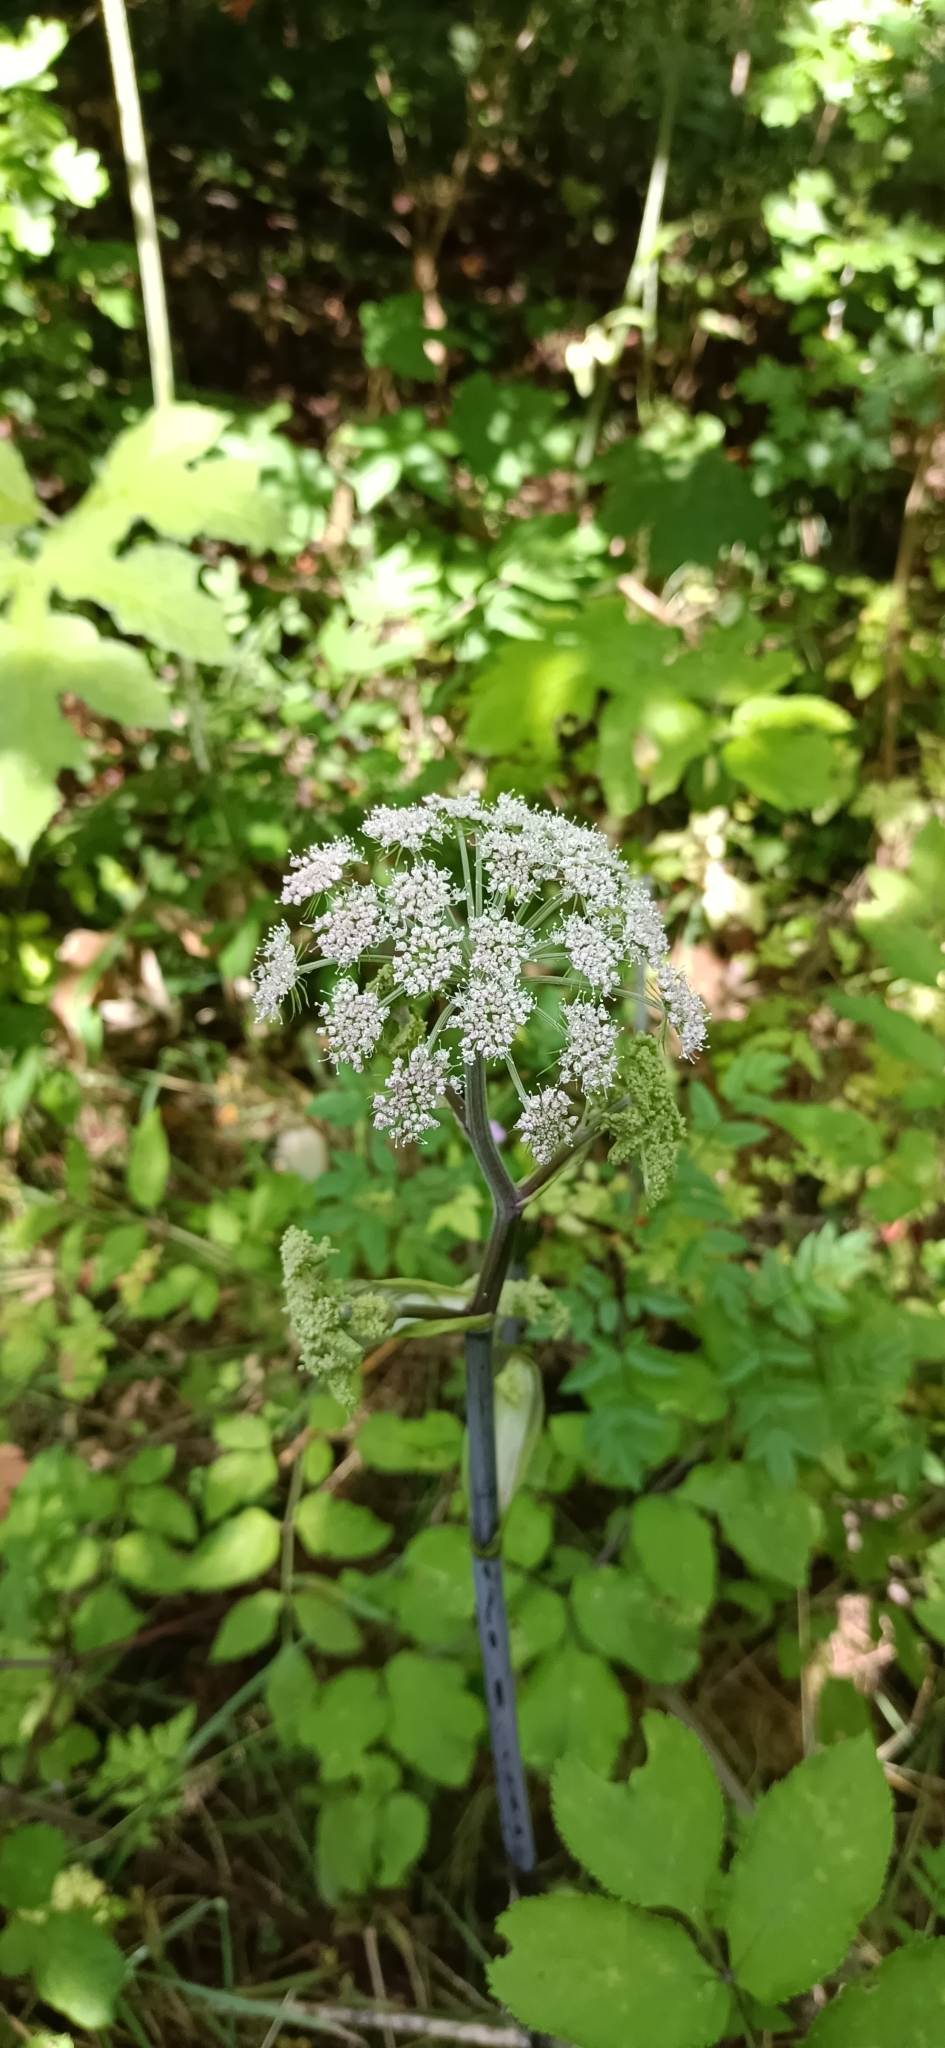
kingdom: Plantae
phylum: Tracheophyta
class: Magnoliopsida
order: Apiales
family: Apiaceae
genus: Angelica
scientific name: Angelica sylvestris
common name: Wild angelica
